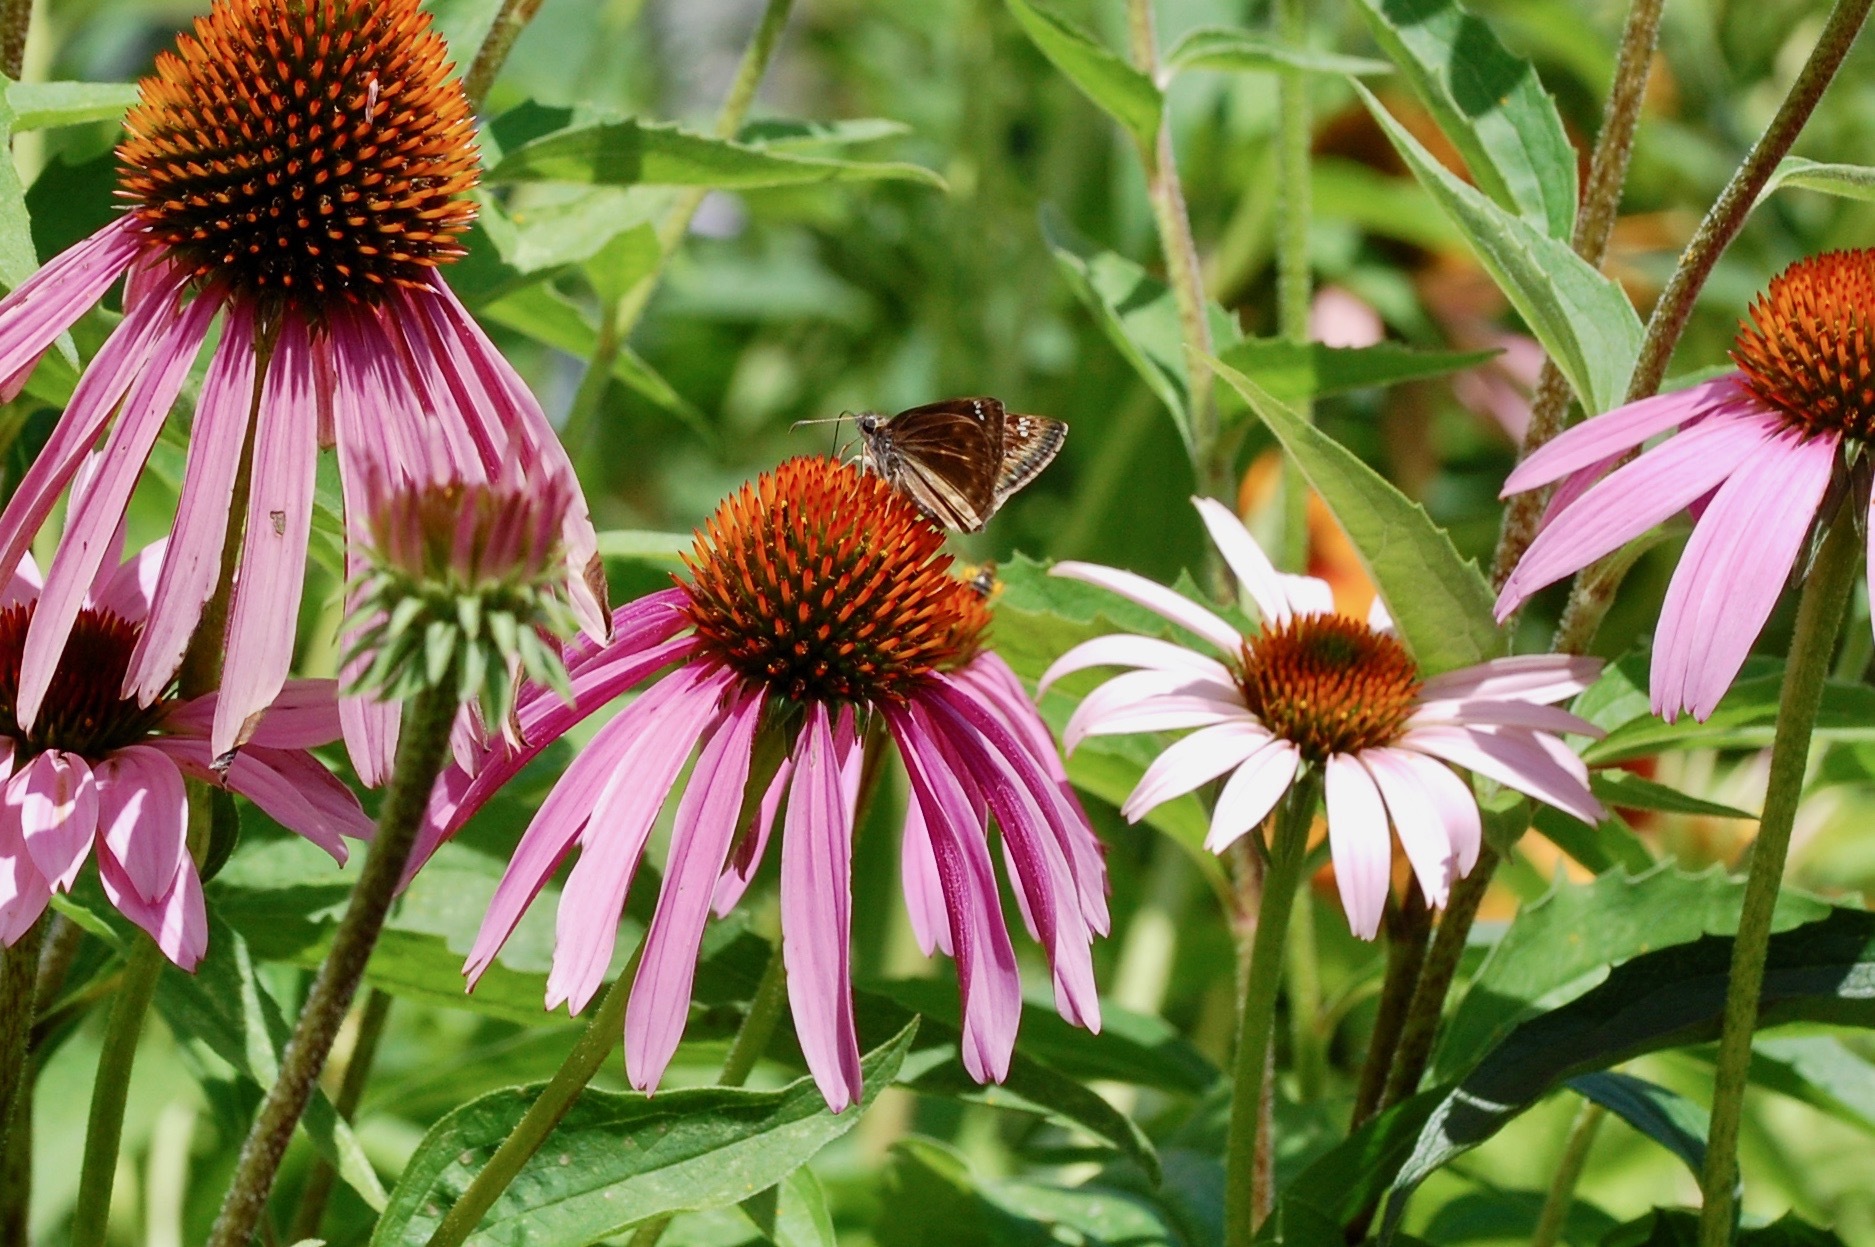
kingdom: Animalia
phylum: Arthropoda
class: Insecta
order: Lepidoptera
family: Hesperiidae
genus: Erynnis
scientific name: Erynnis horatius
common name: Horace's duskywing
